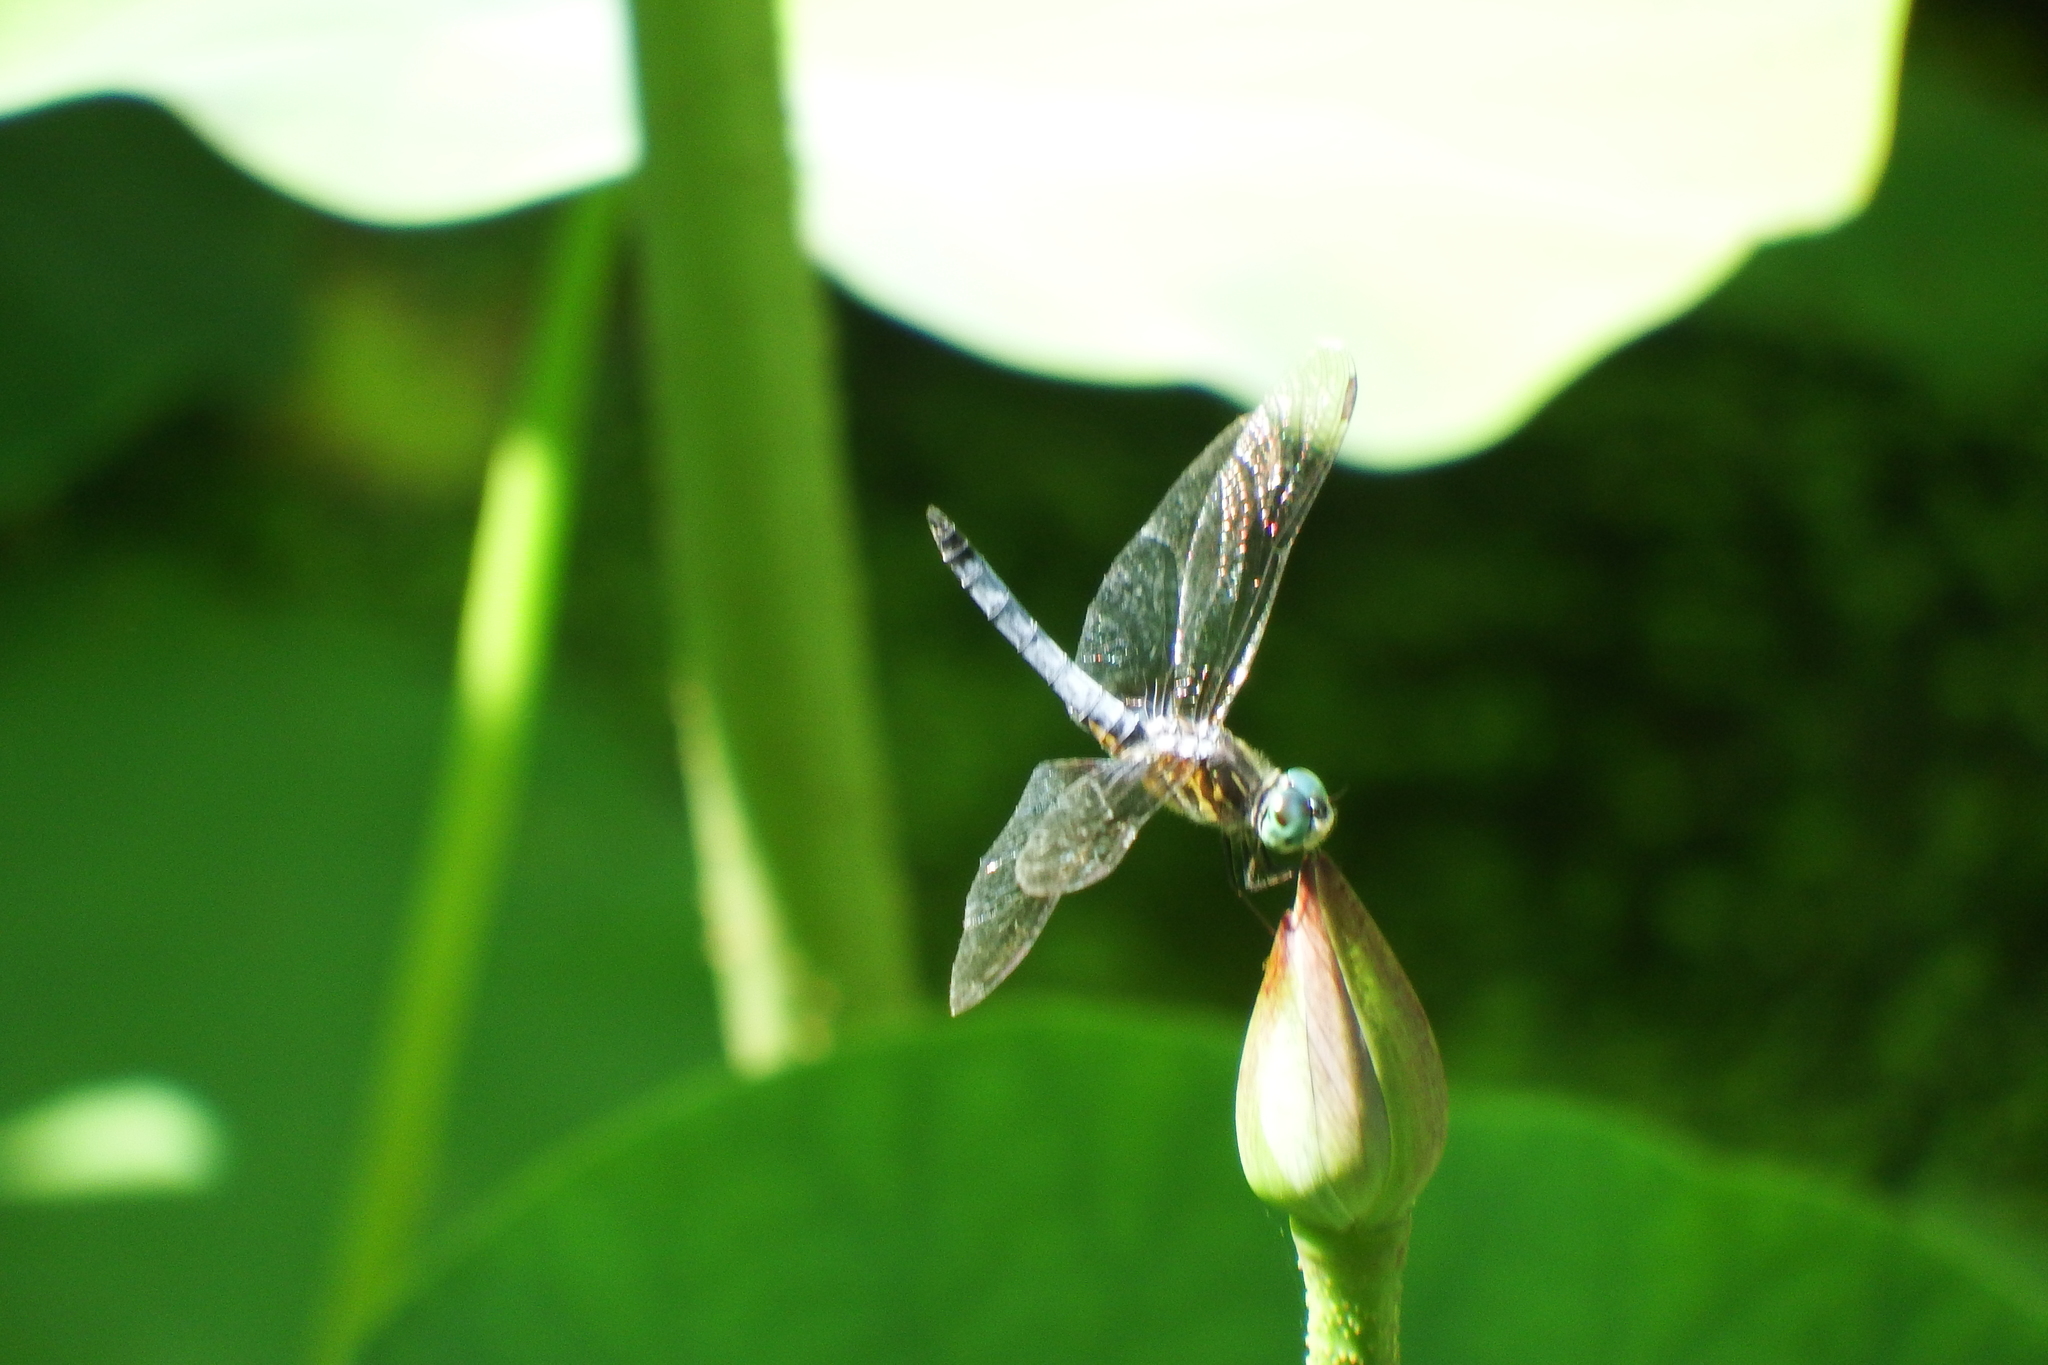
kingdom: Animalia
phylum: Arthropoda
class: Insecta
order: Odonata
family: Libellulidae
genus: Pachydiplax
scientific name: Pachydiplax longipennis
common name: Blue dasher
